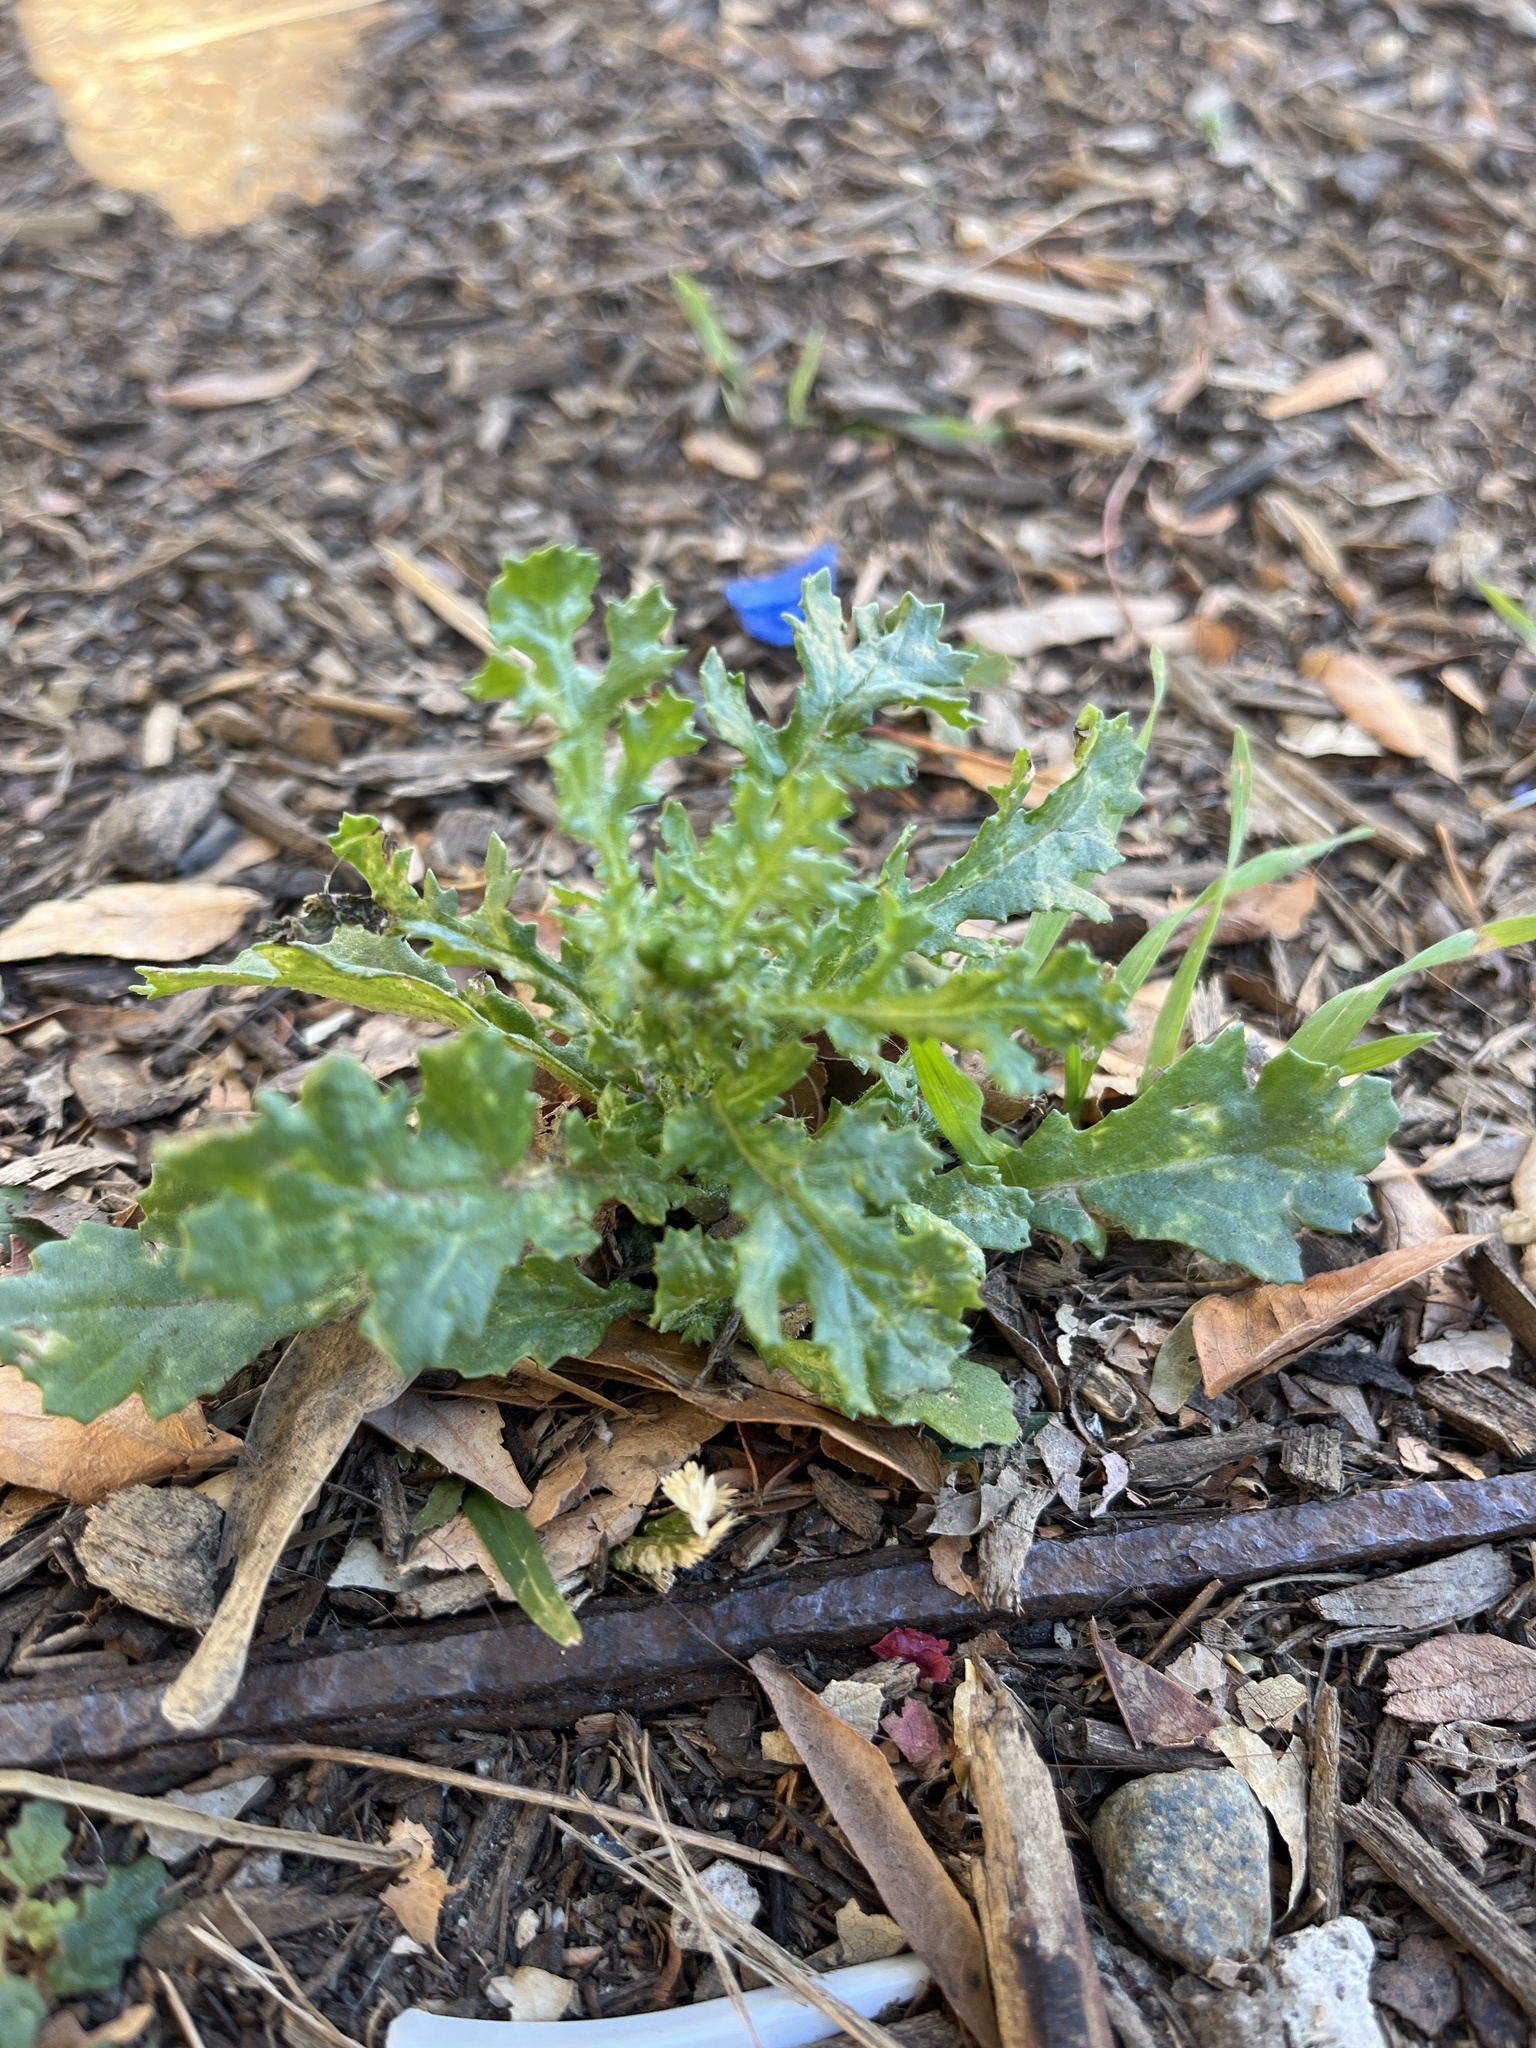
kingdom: Plantae
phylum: Tracheophyta
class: Magnoliopsida
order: Asterales
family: Asteraceae
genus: Senecio
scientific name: Senecio vulgaris
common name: Old-man-in-the-spring
